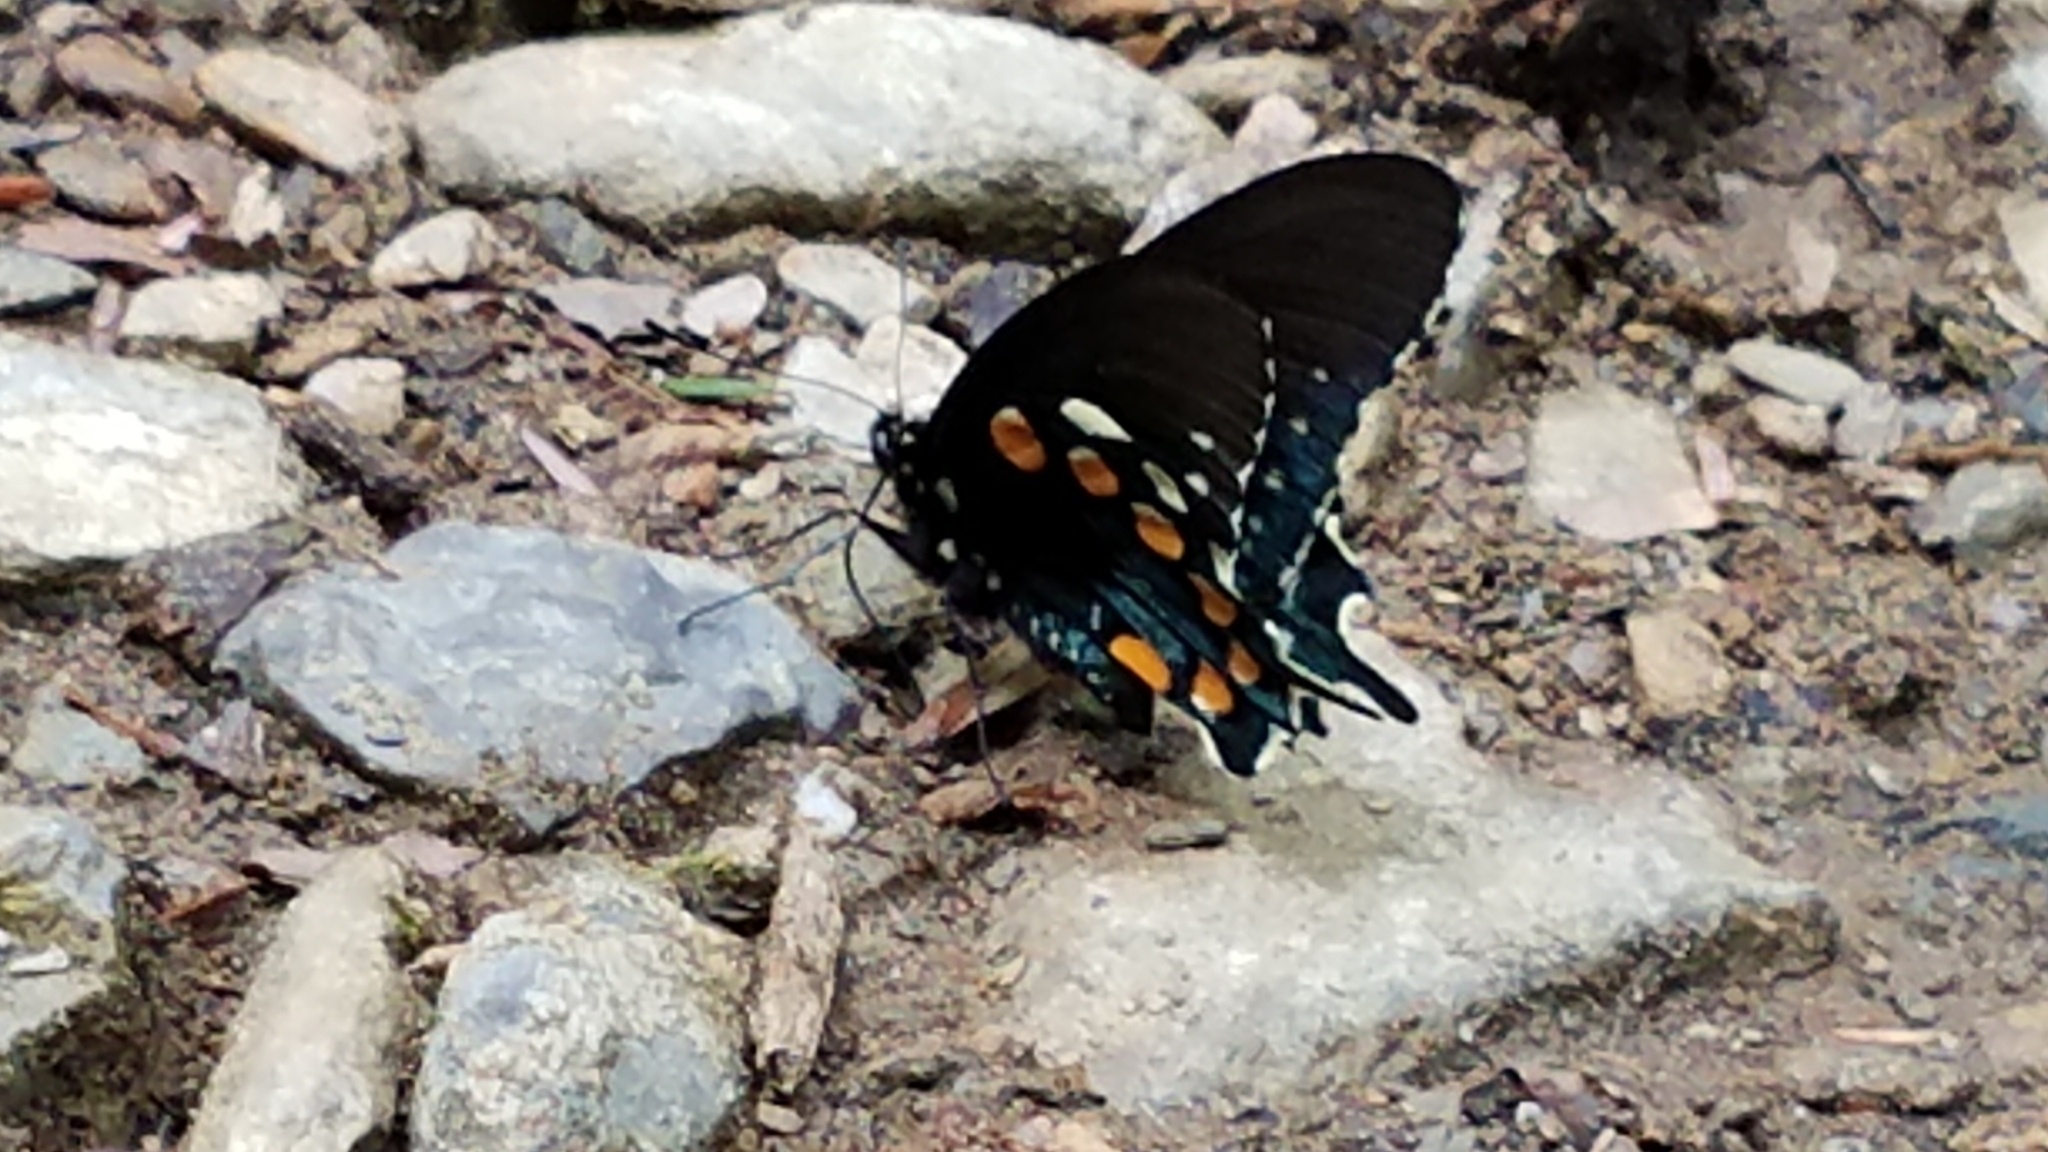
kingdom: Animalia
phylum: Arthropoda
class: Insecta
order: Lepidoptera
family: Papilionidae
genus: Battus
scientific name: Battus philenor
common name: Pipevine swallowtail
